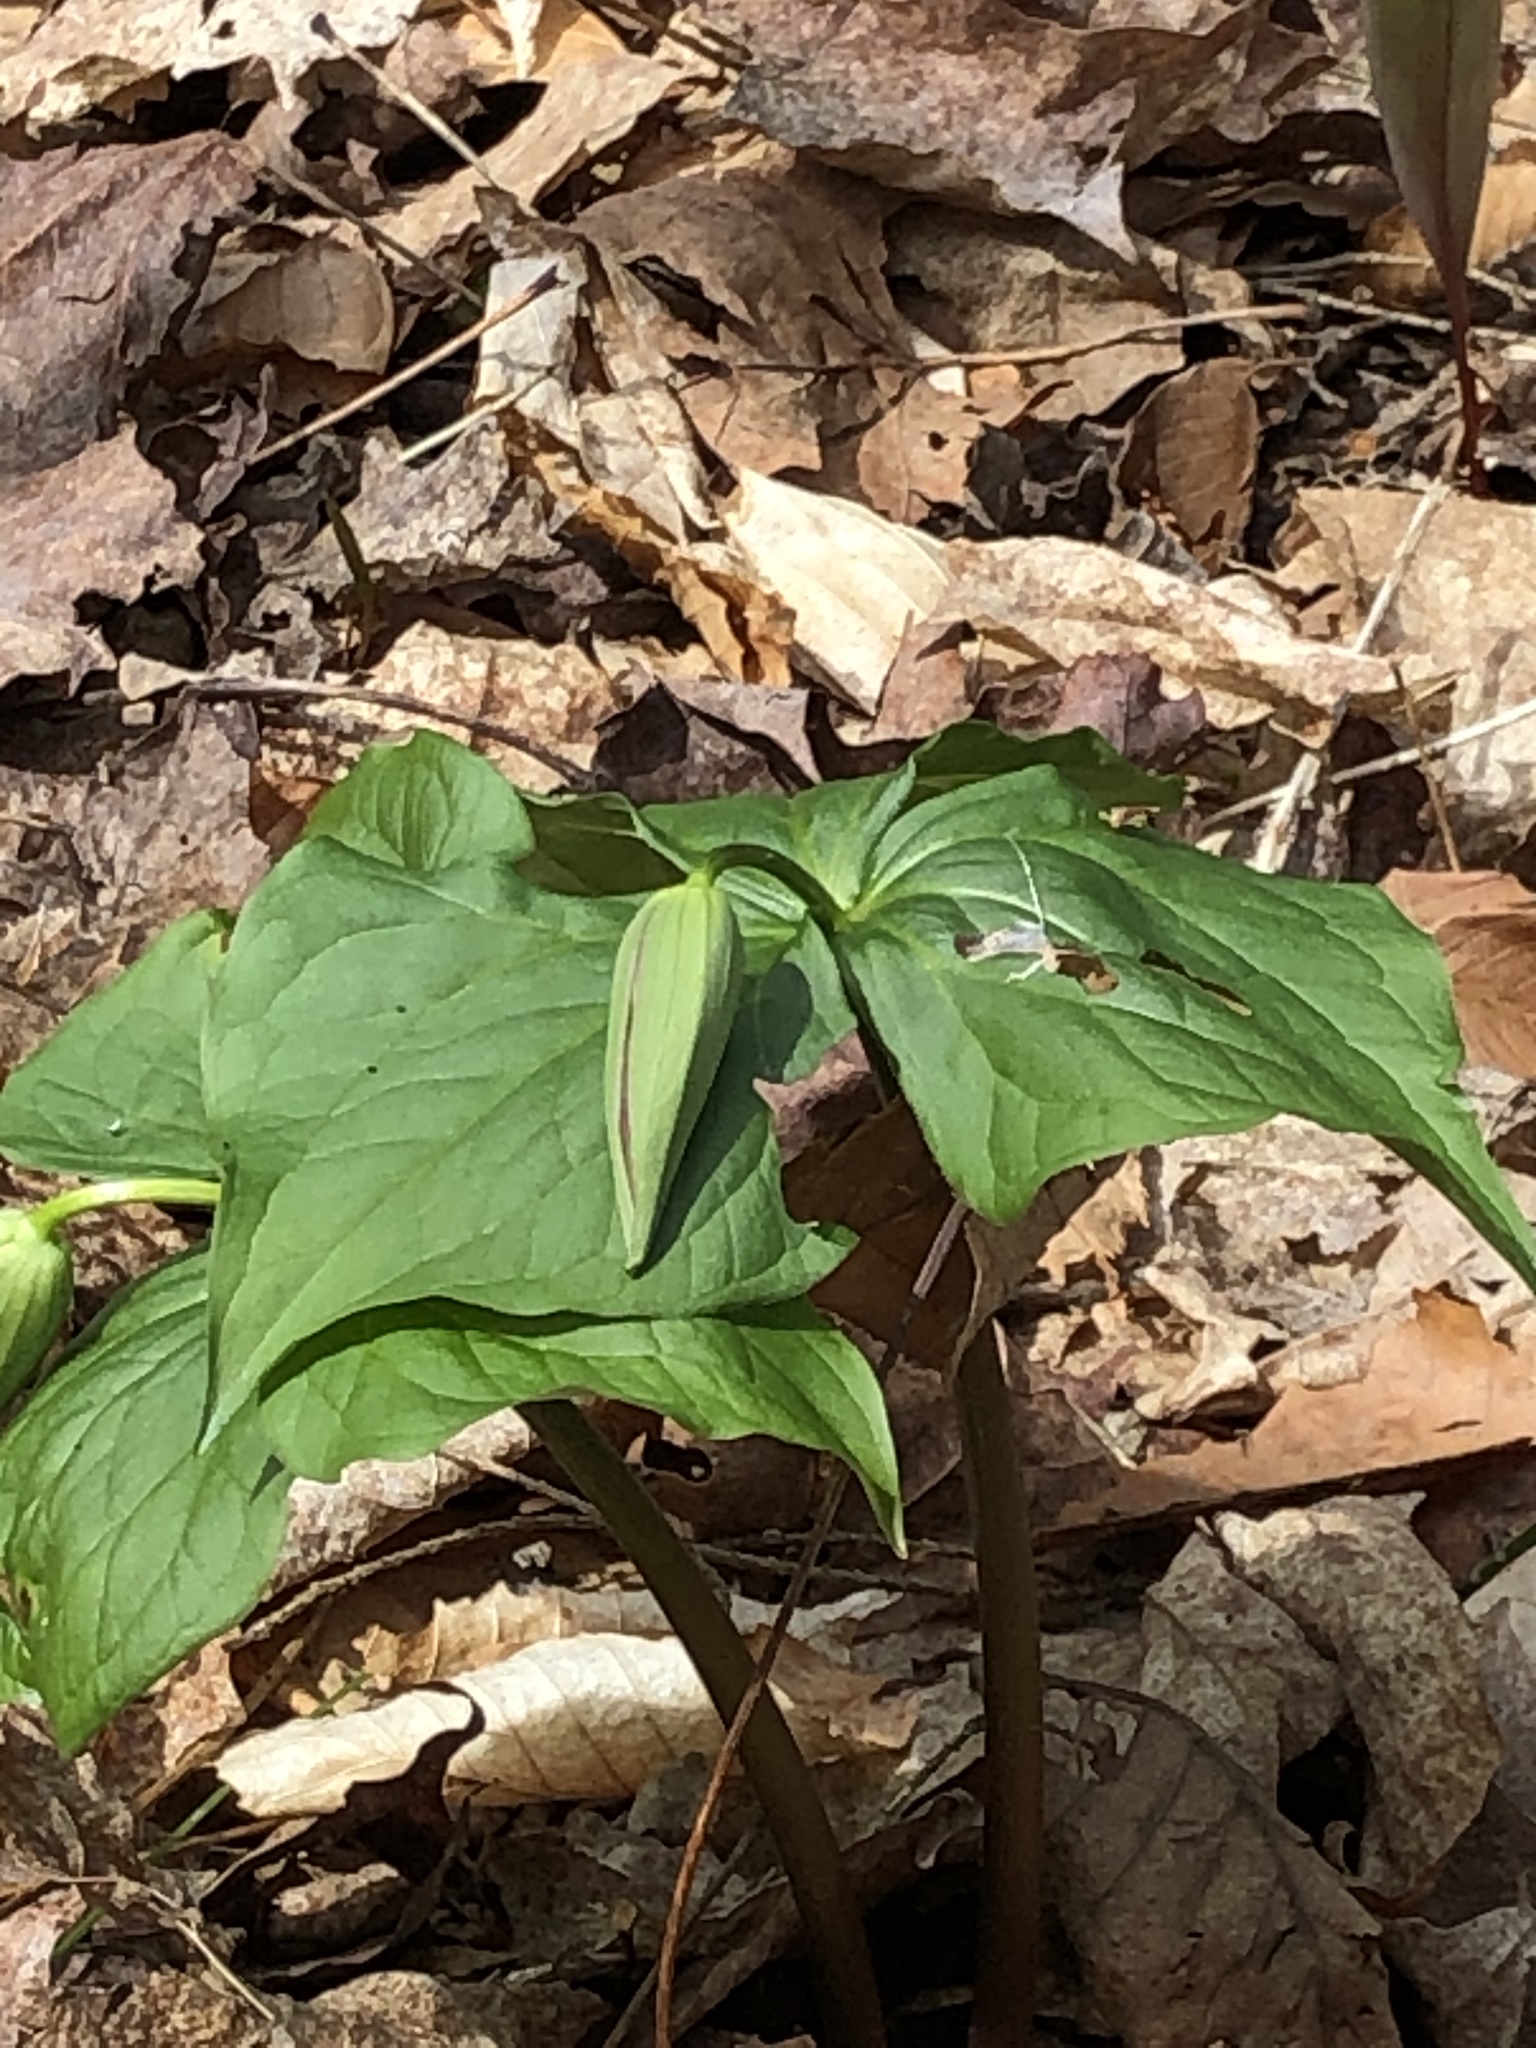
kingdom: Plantae
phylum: Tracheophyta
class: Liliopsida
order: Liliales
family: Melanthiaceae
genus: Trillium
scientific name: Trillium erectum
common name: Purple trillium
